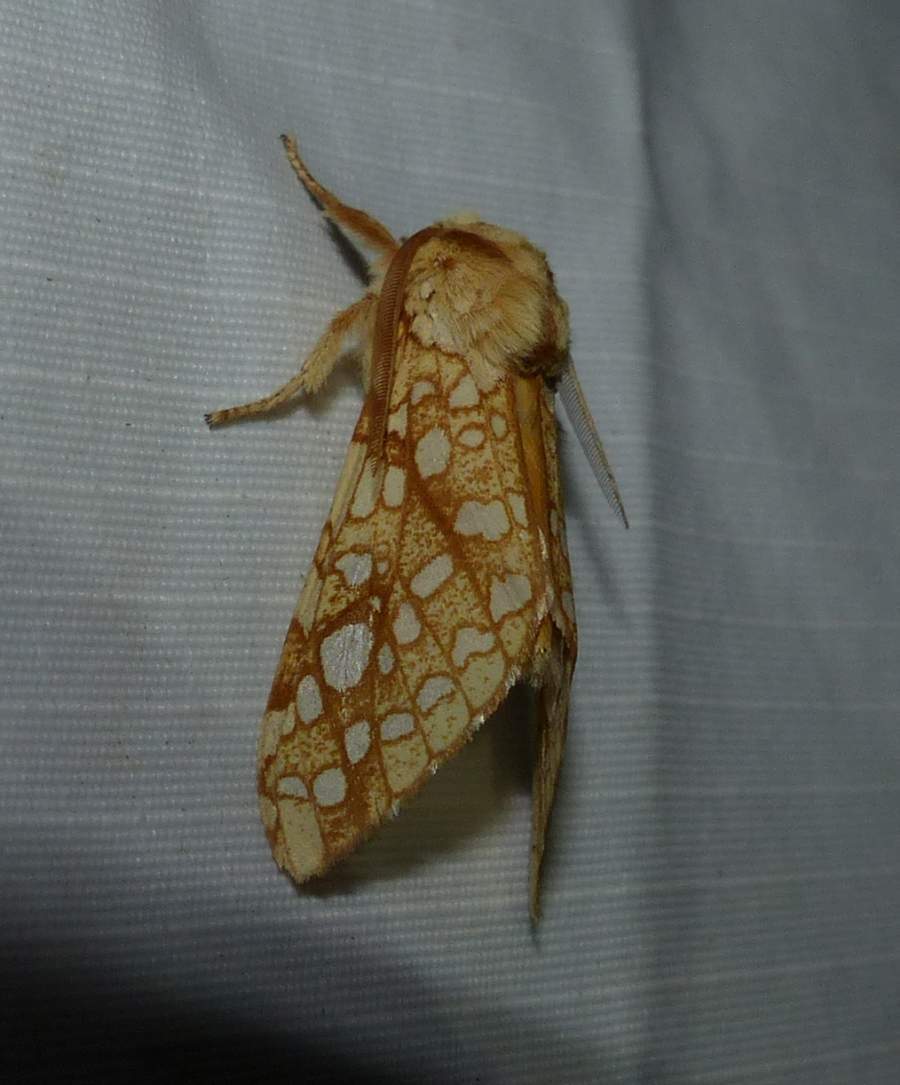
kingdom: Animalia
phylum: Arthropoda
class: Insecta
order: Lepidoptera
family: Erebidae
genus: Lophocampa
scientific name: Lophocampa caryae
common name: Hickory tussock moth
